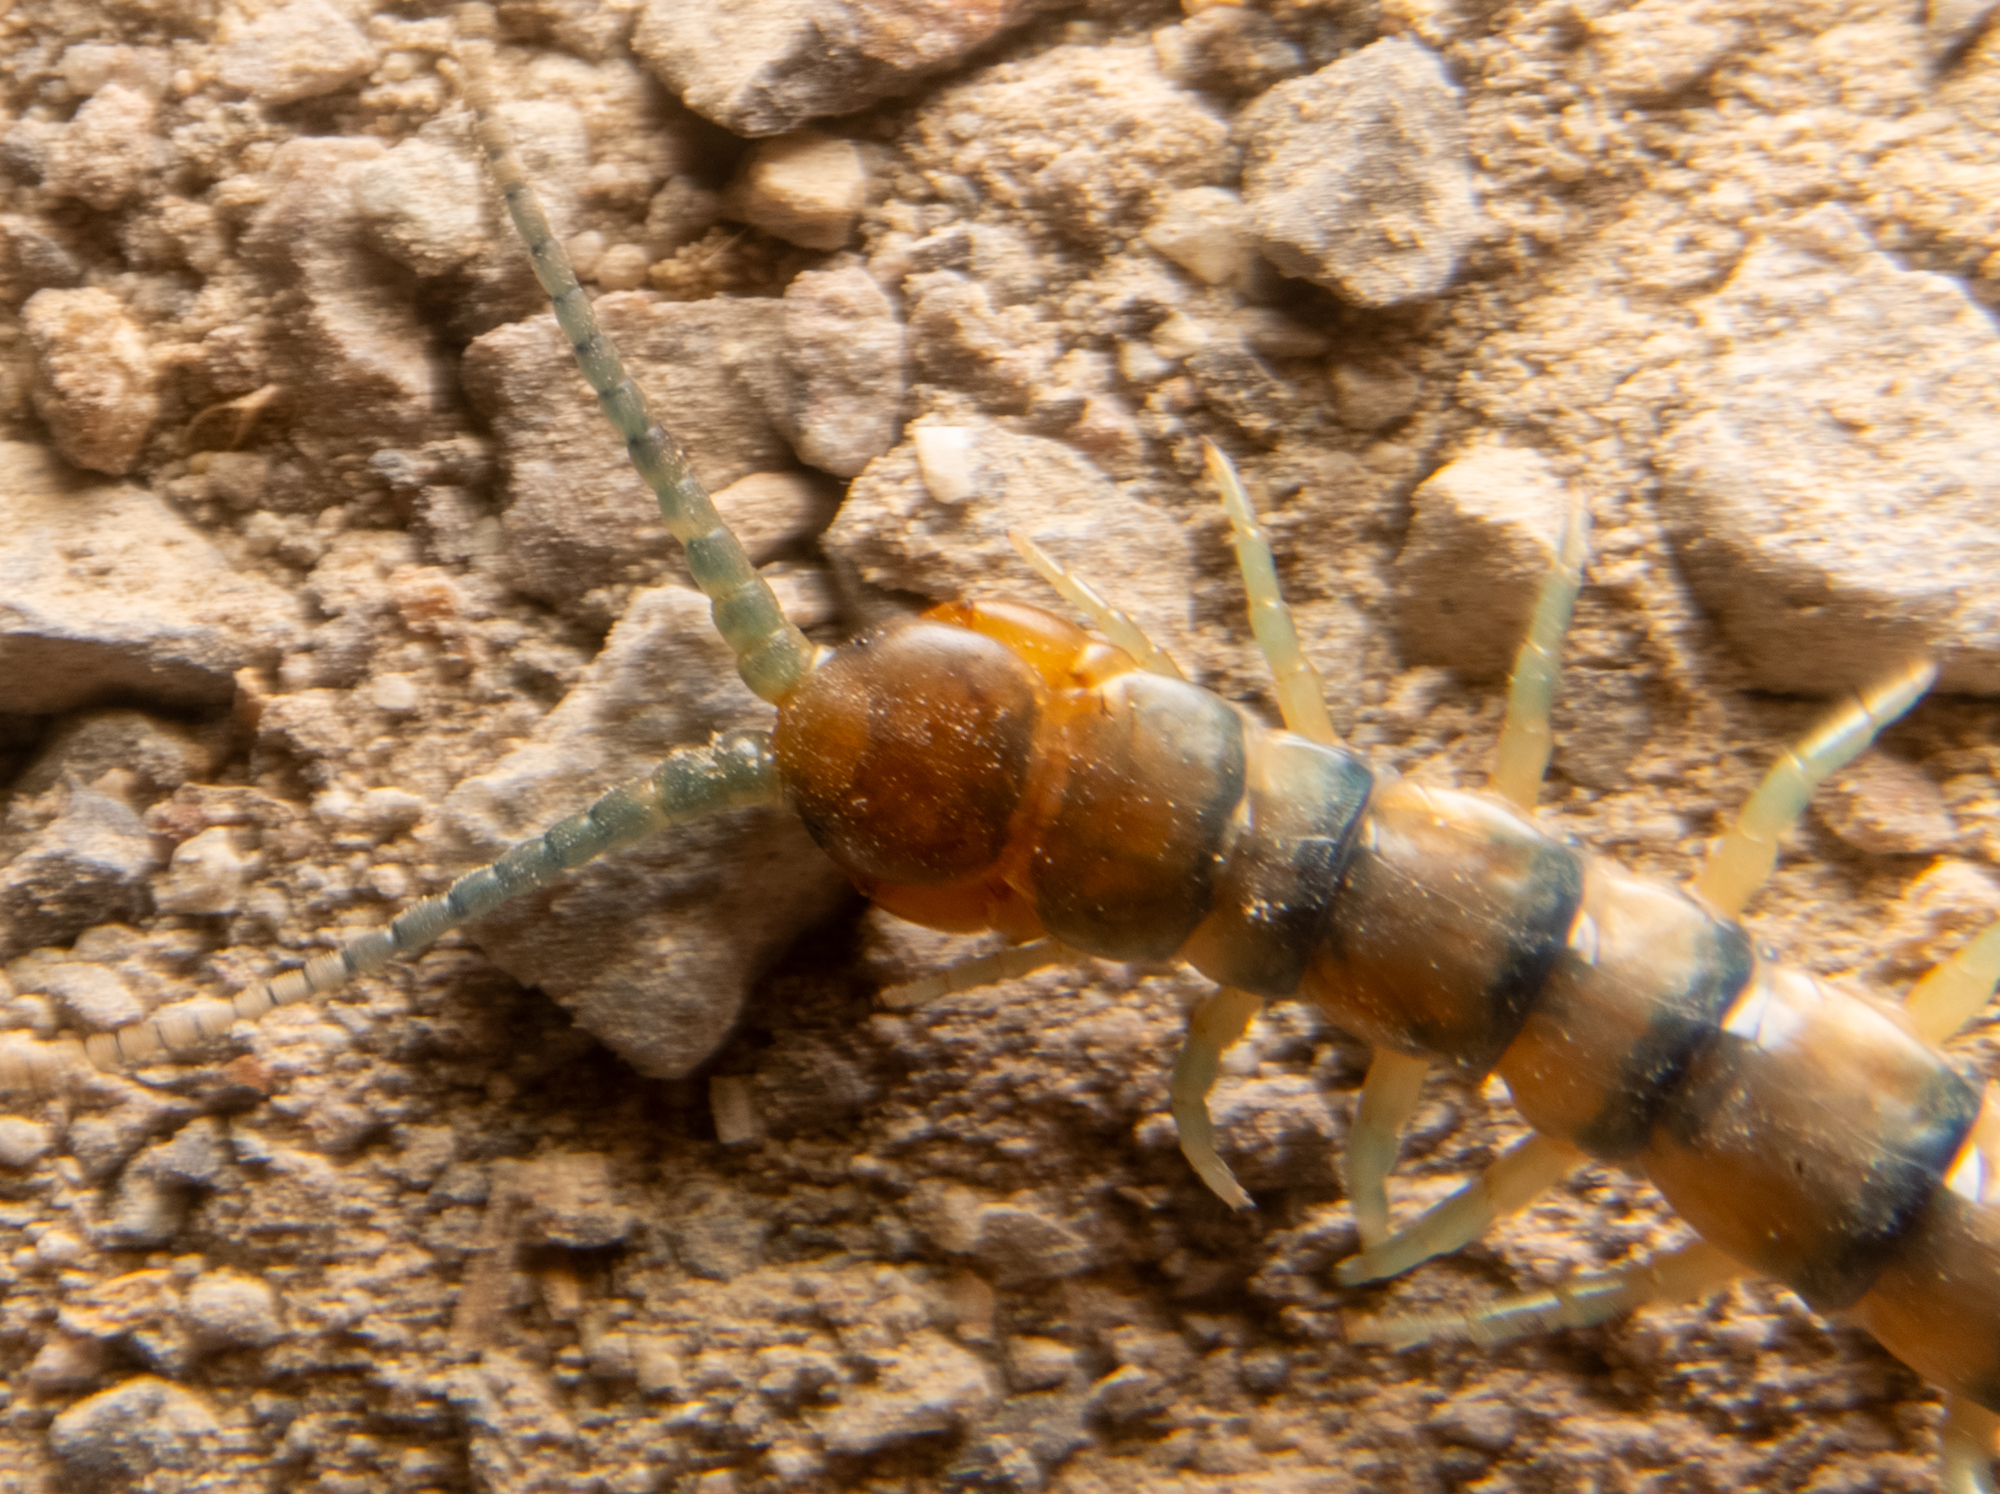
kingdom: Animalia
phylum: Arthropoda
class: Chilopoda
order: Scolopendromorpha
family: Scolopendridae
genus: Scolopendra
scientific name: Scolopendra polymorpha
